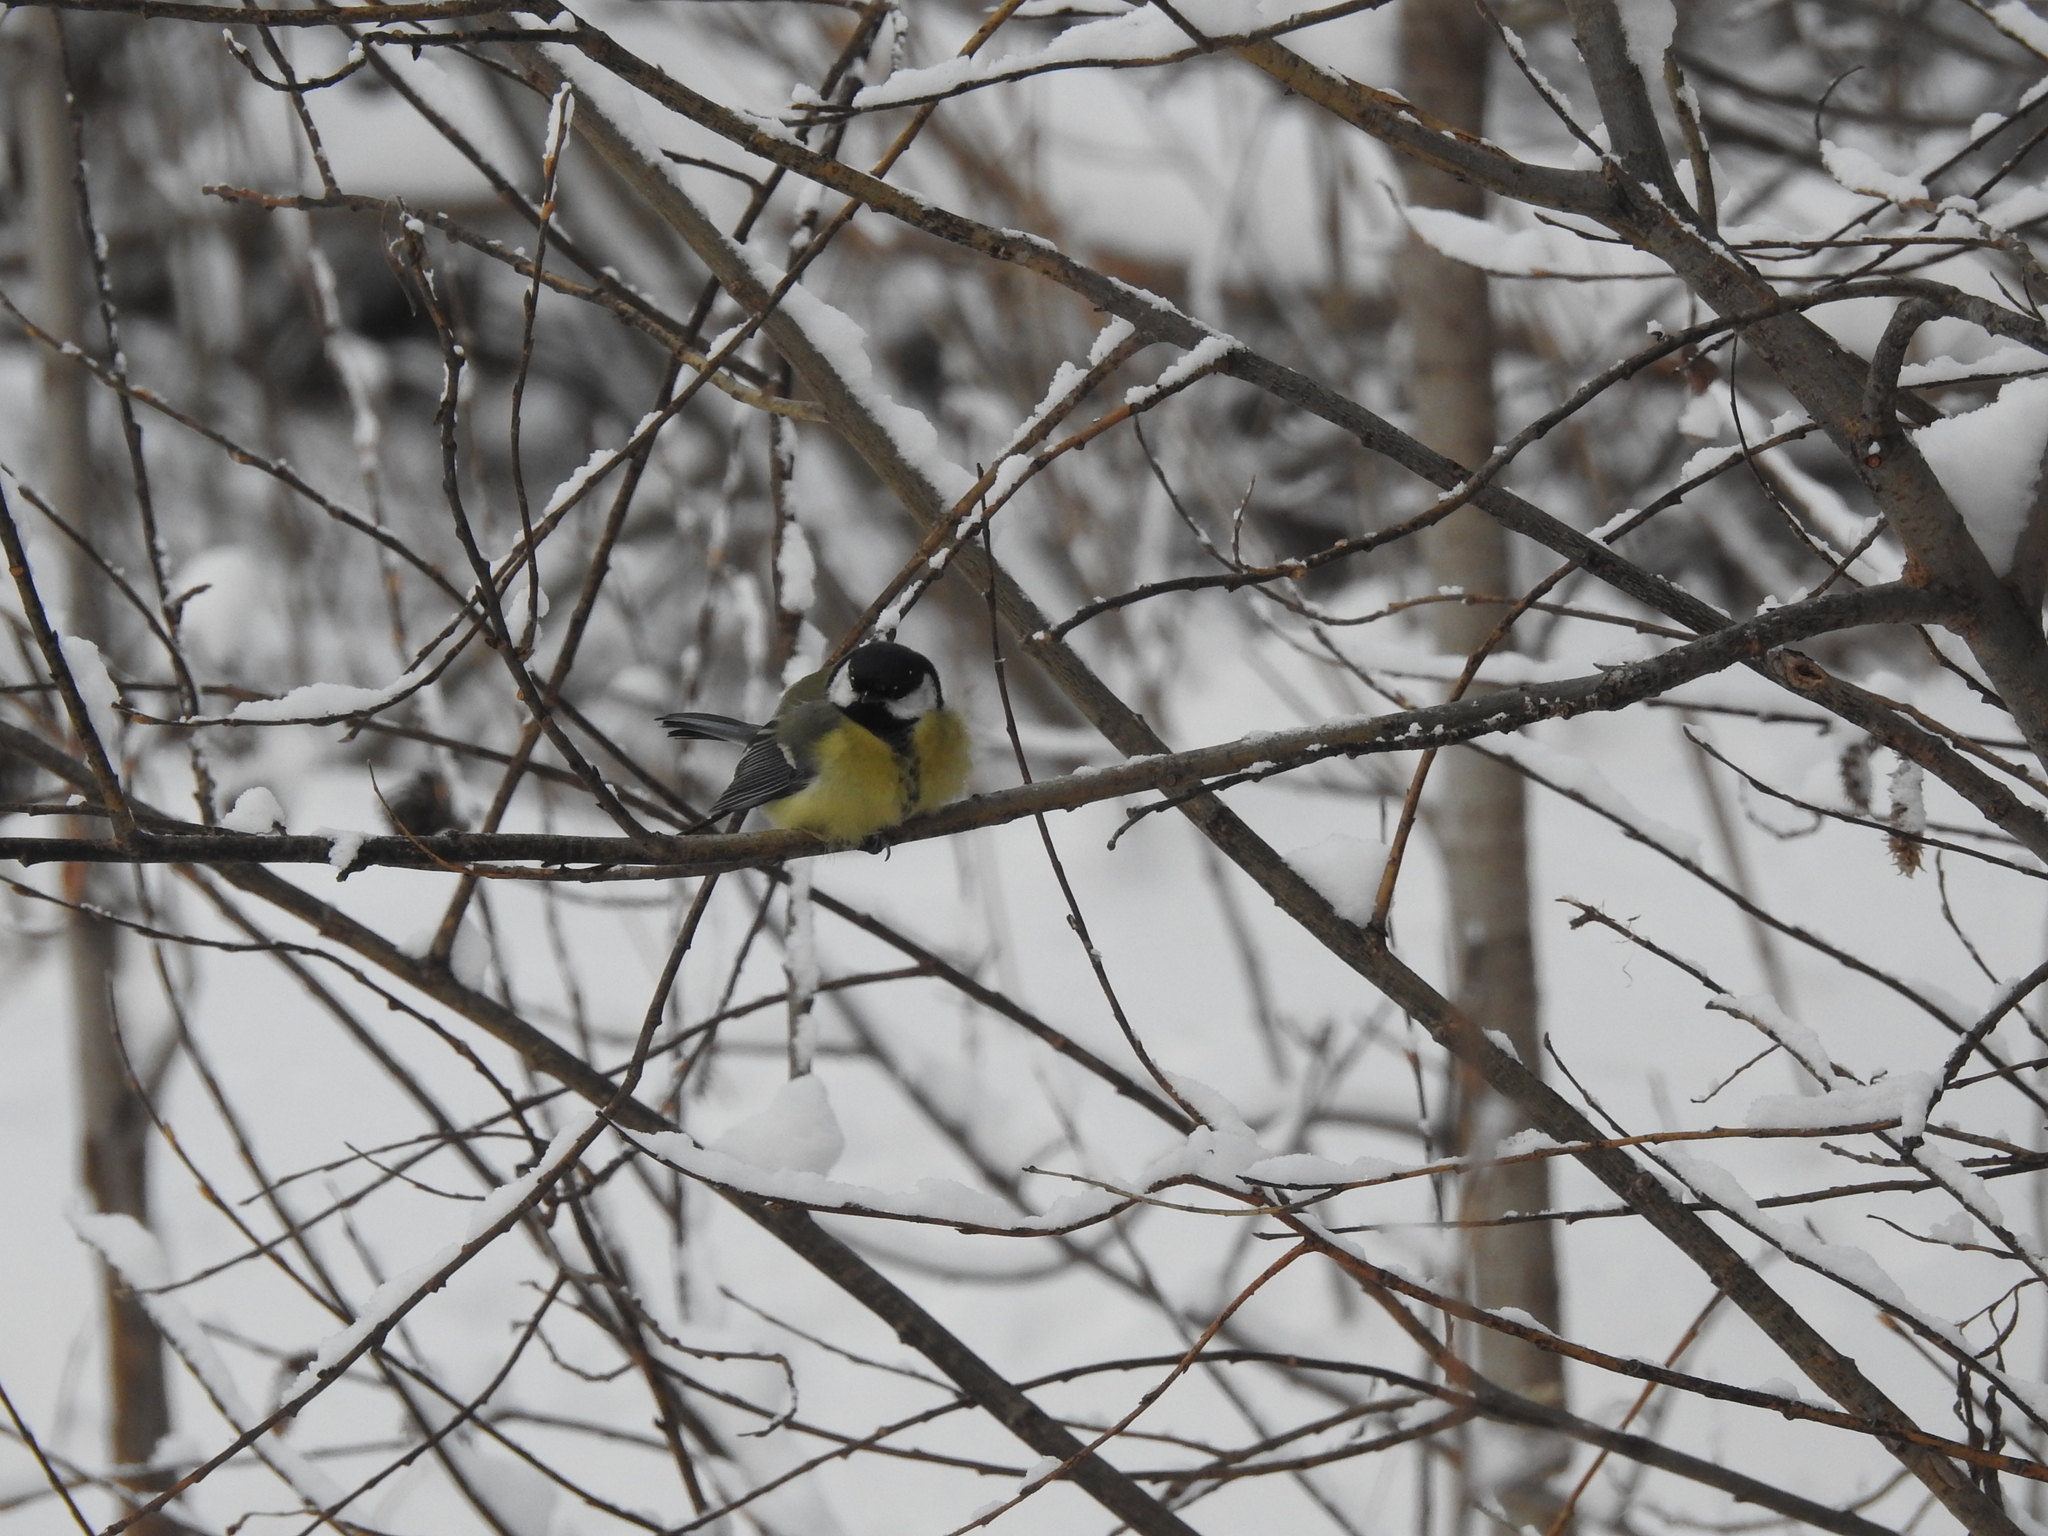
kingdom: Animalia
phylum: Chordata
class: Aves
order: Passeriformes
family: Paridae
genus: Parus
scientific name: Parus major
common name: Great tit
